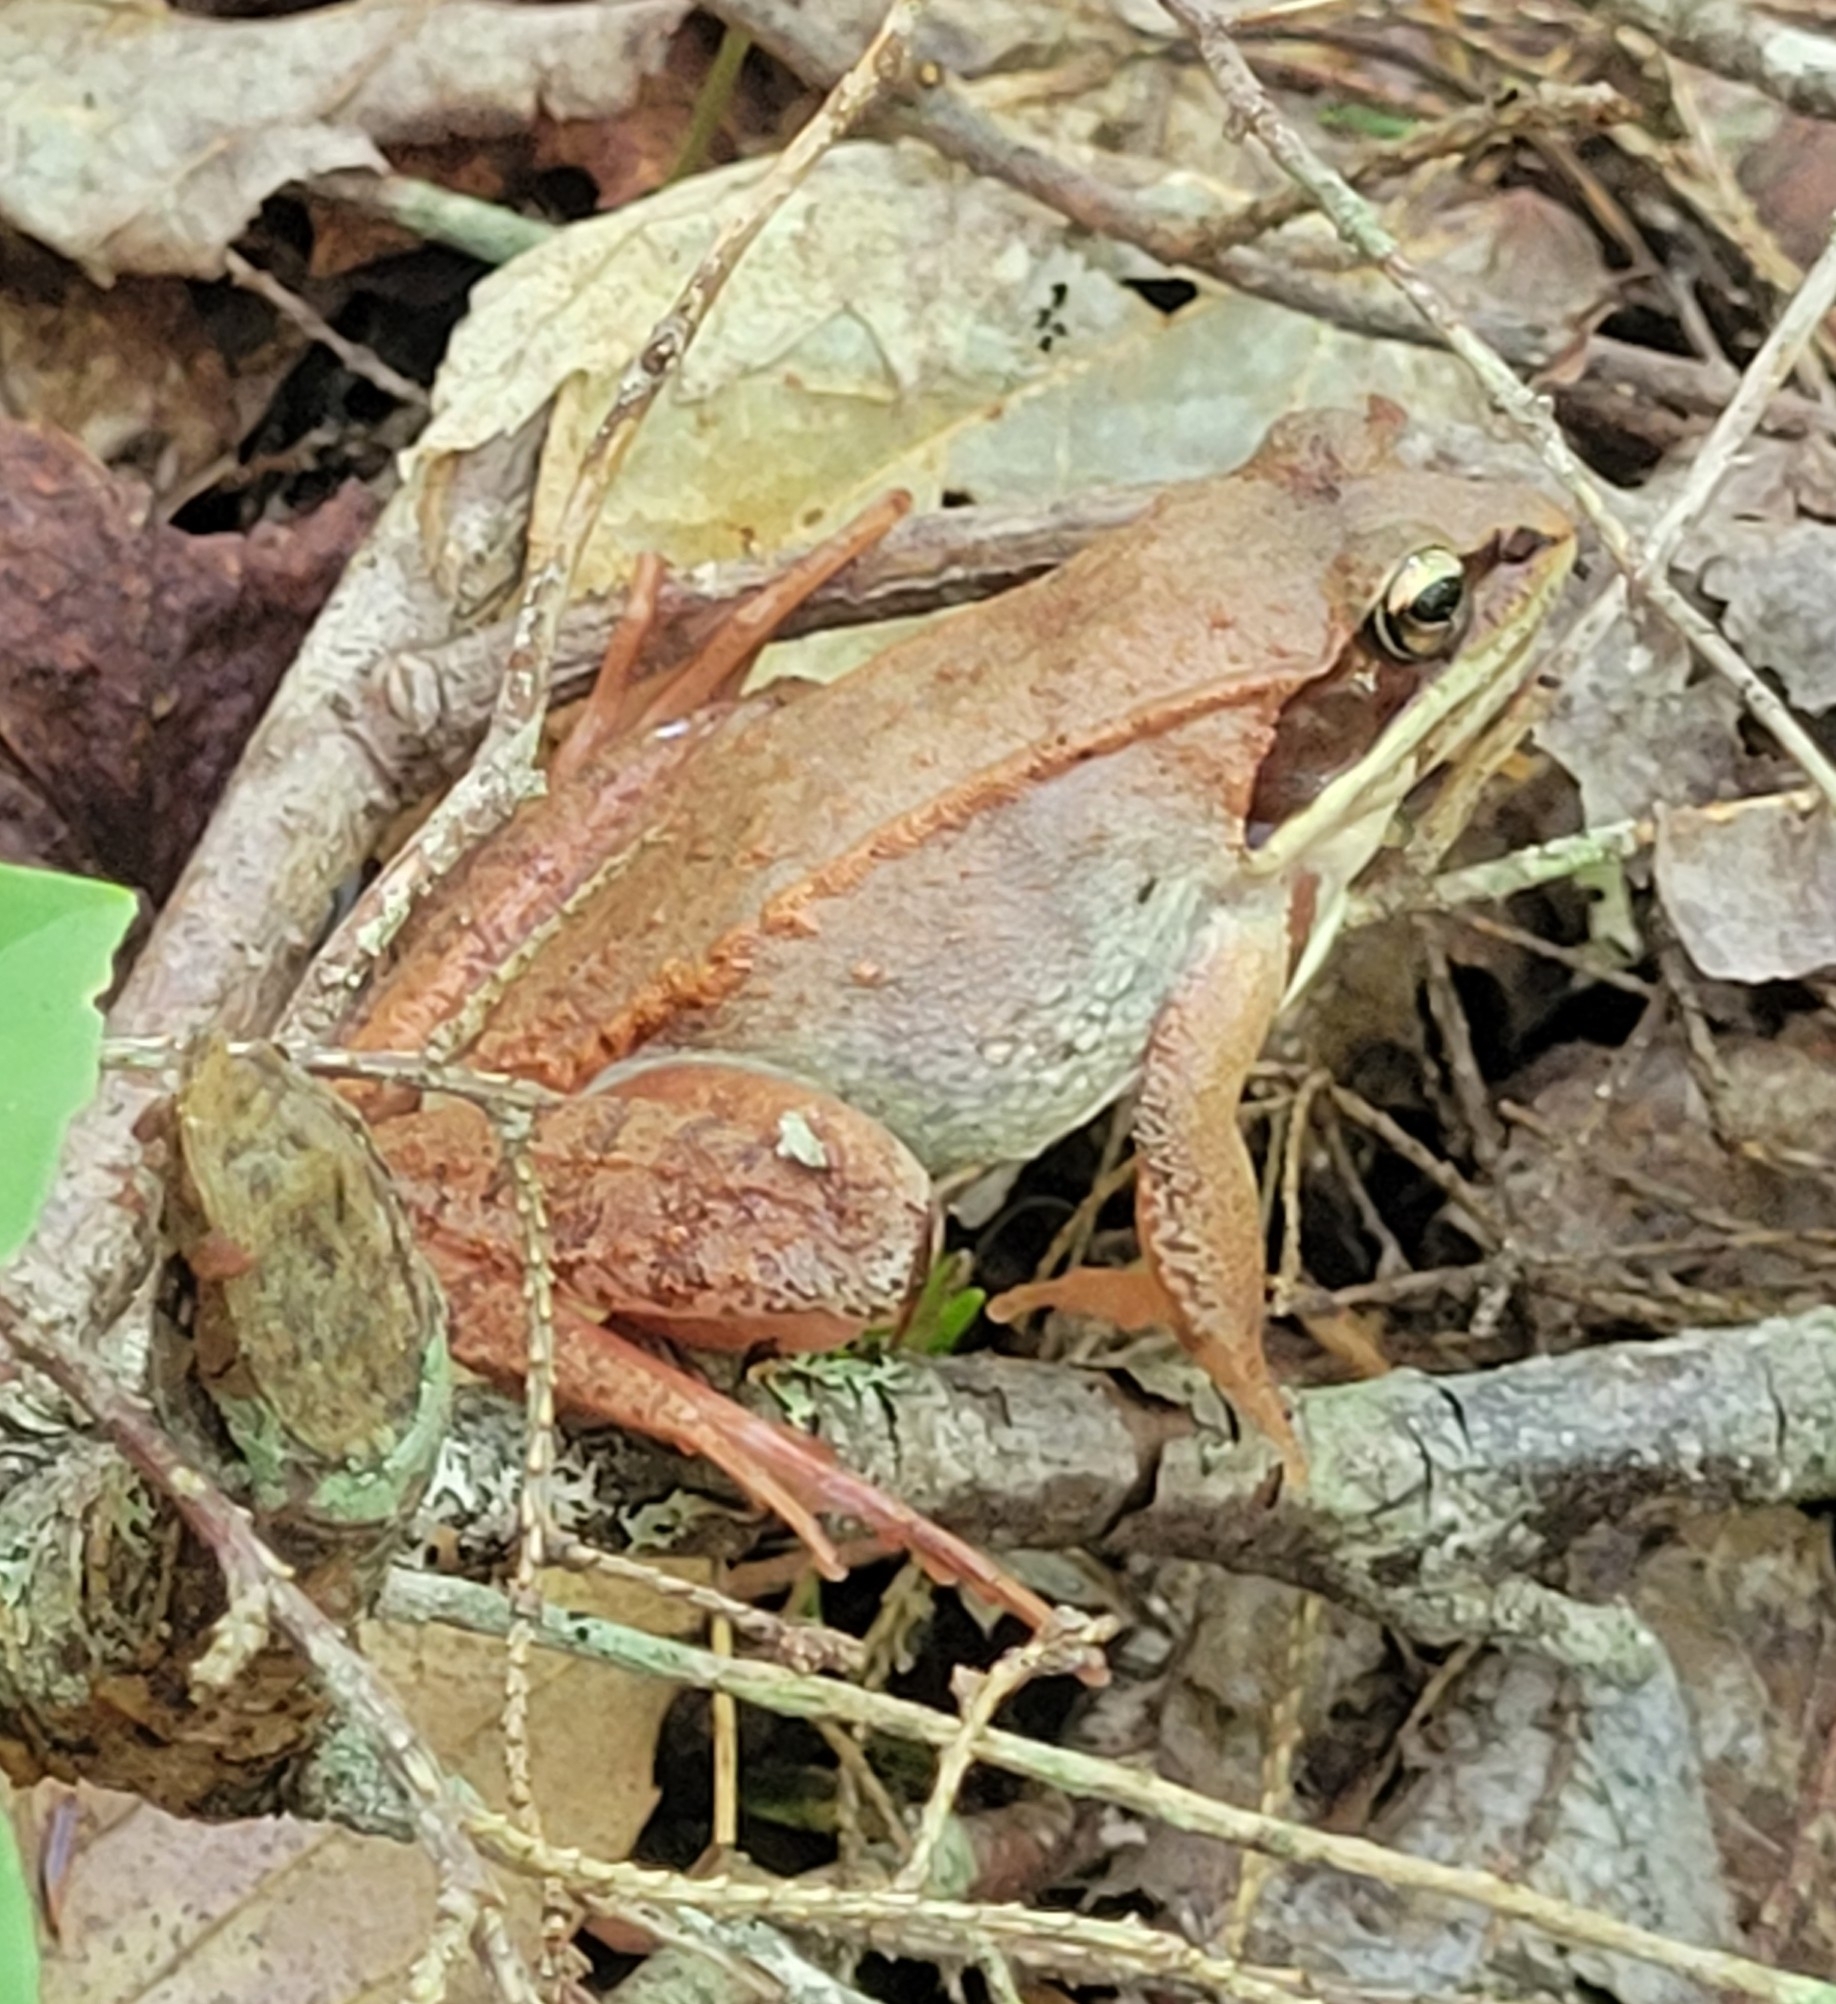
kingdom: Animalia
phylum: Chordata
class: Amphibia
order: Anura
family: Ranidae
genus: Lithobates
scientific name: Lithobates sylvaticus
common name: Wood frog
